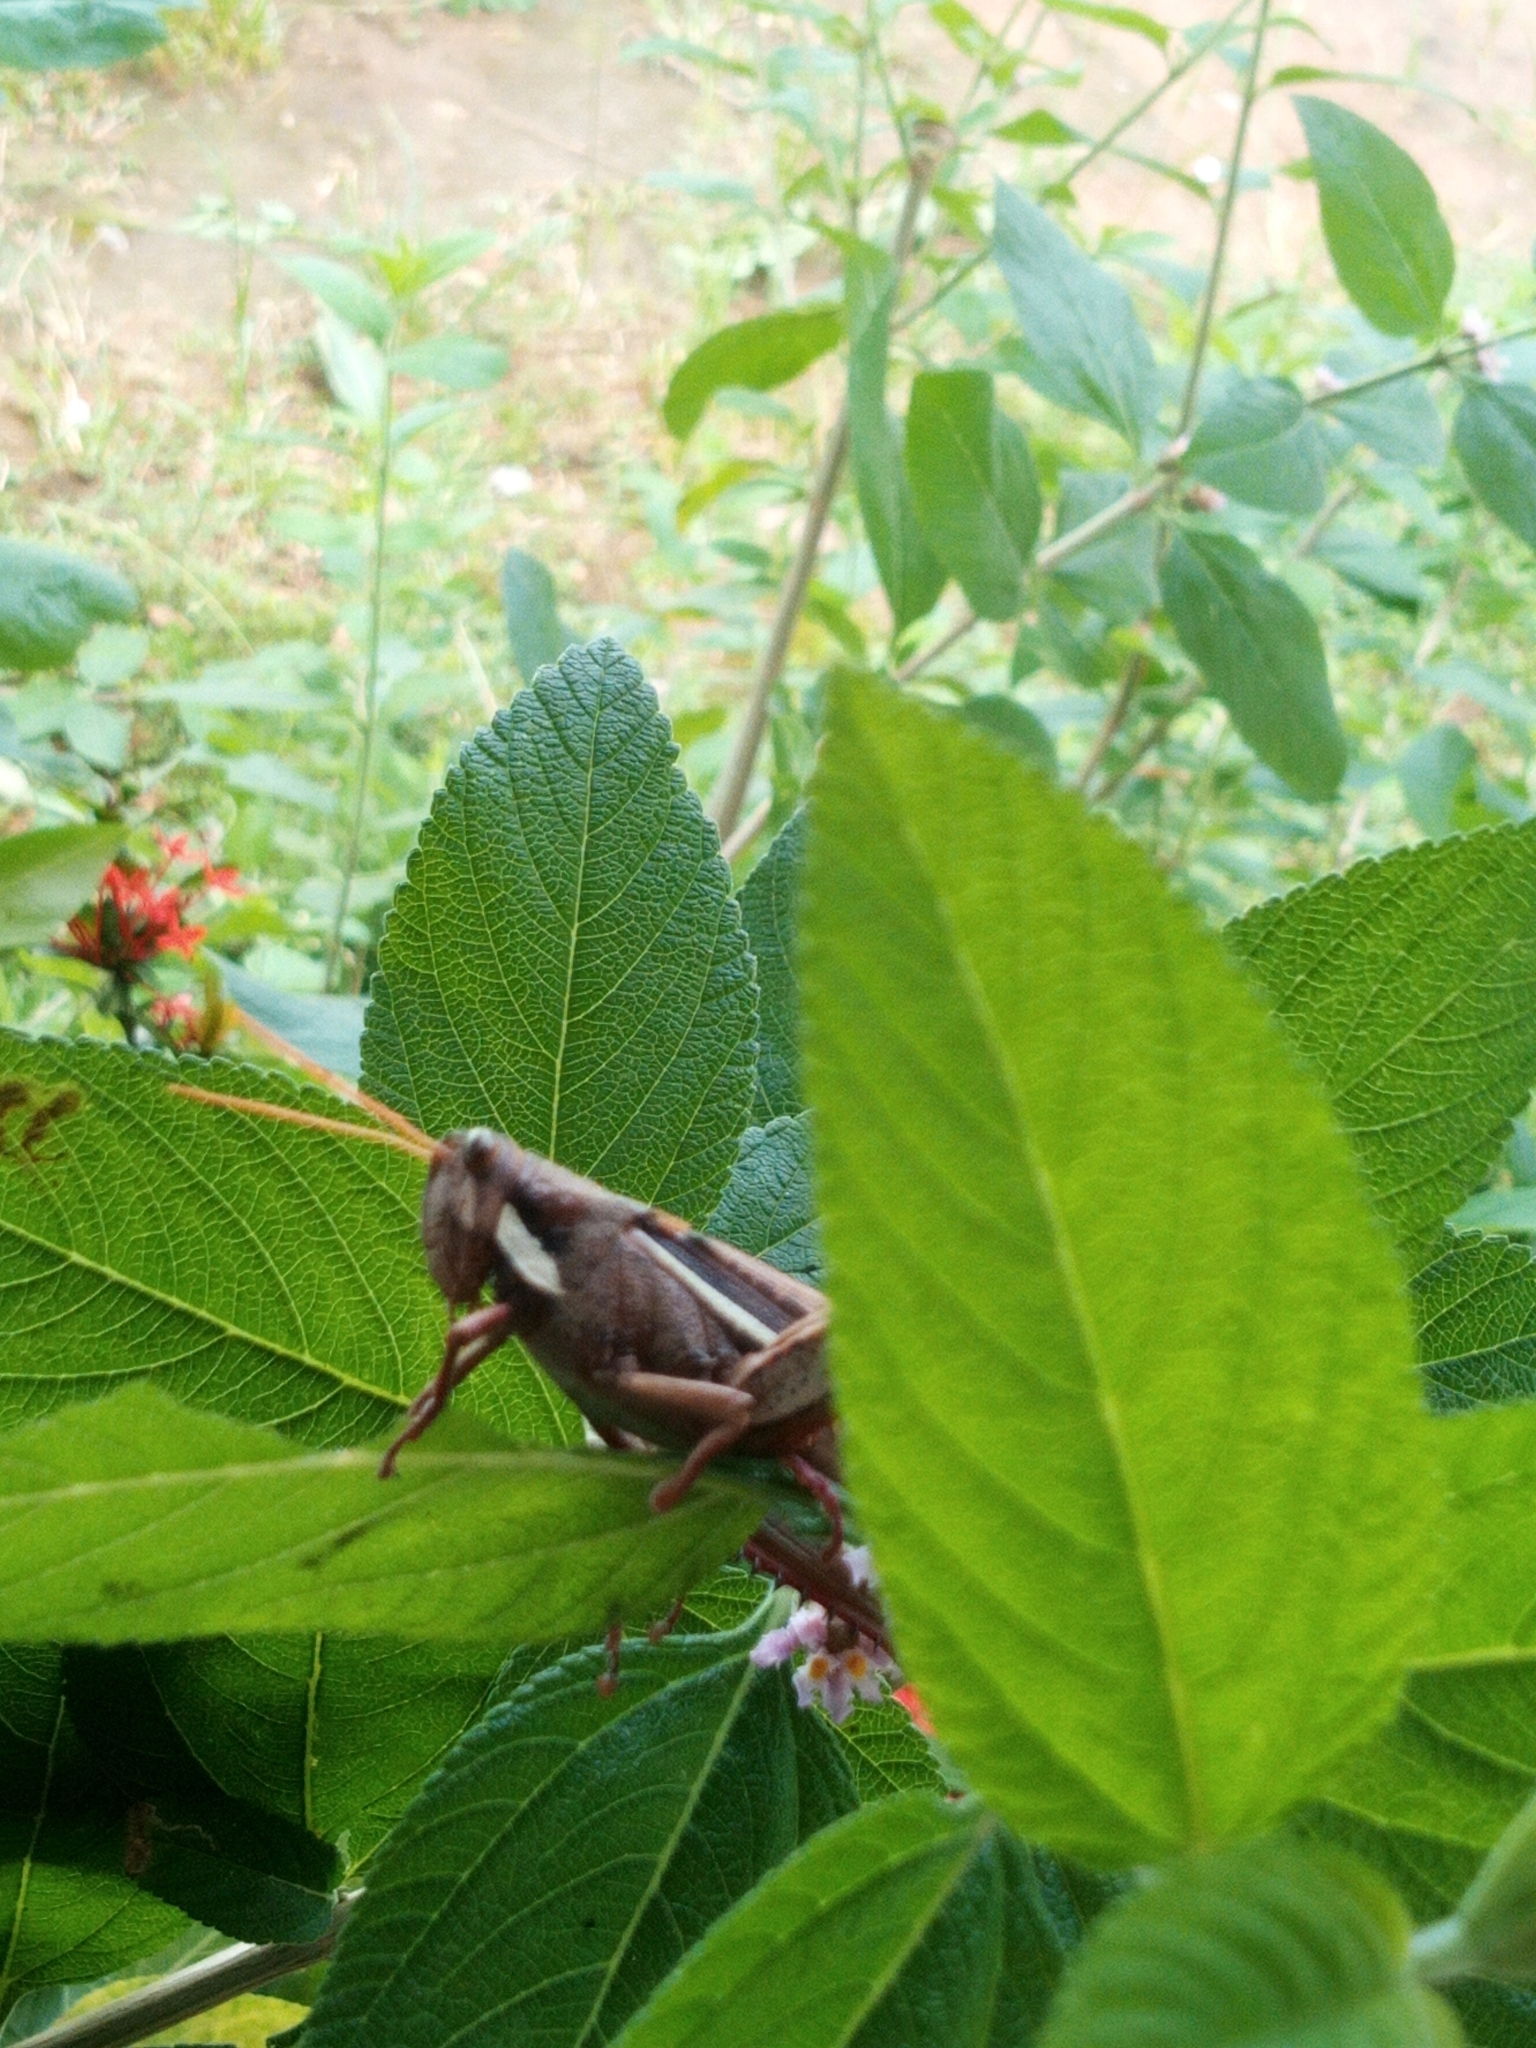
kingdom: Animalia
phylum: Arthropoda
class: Insecta
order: Orthoptera
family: Acrididae
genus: Schistocerca
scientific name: Schistocerca flavofasciata
